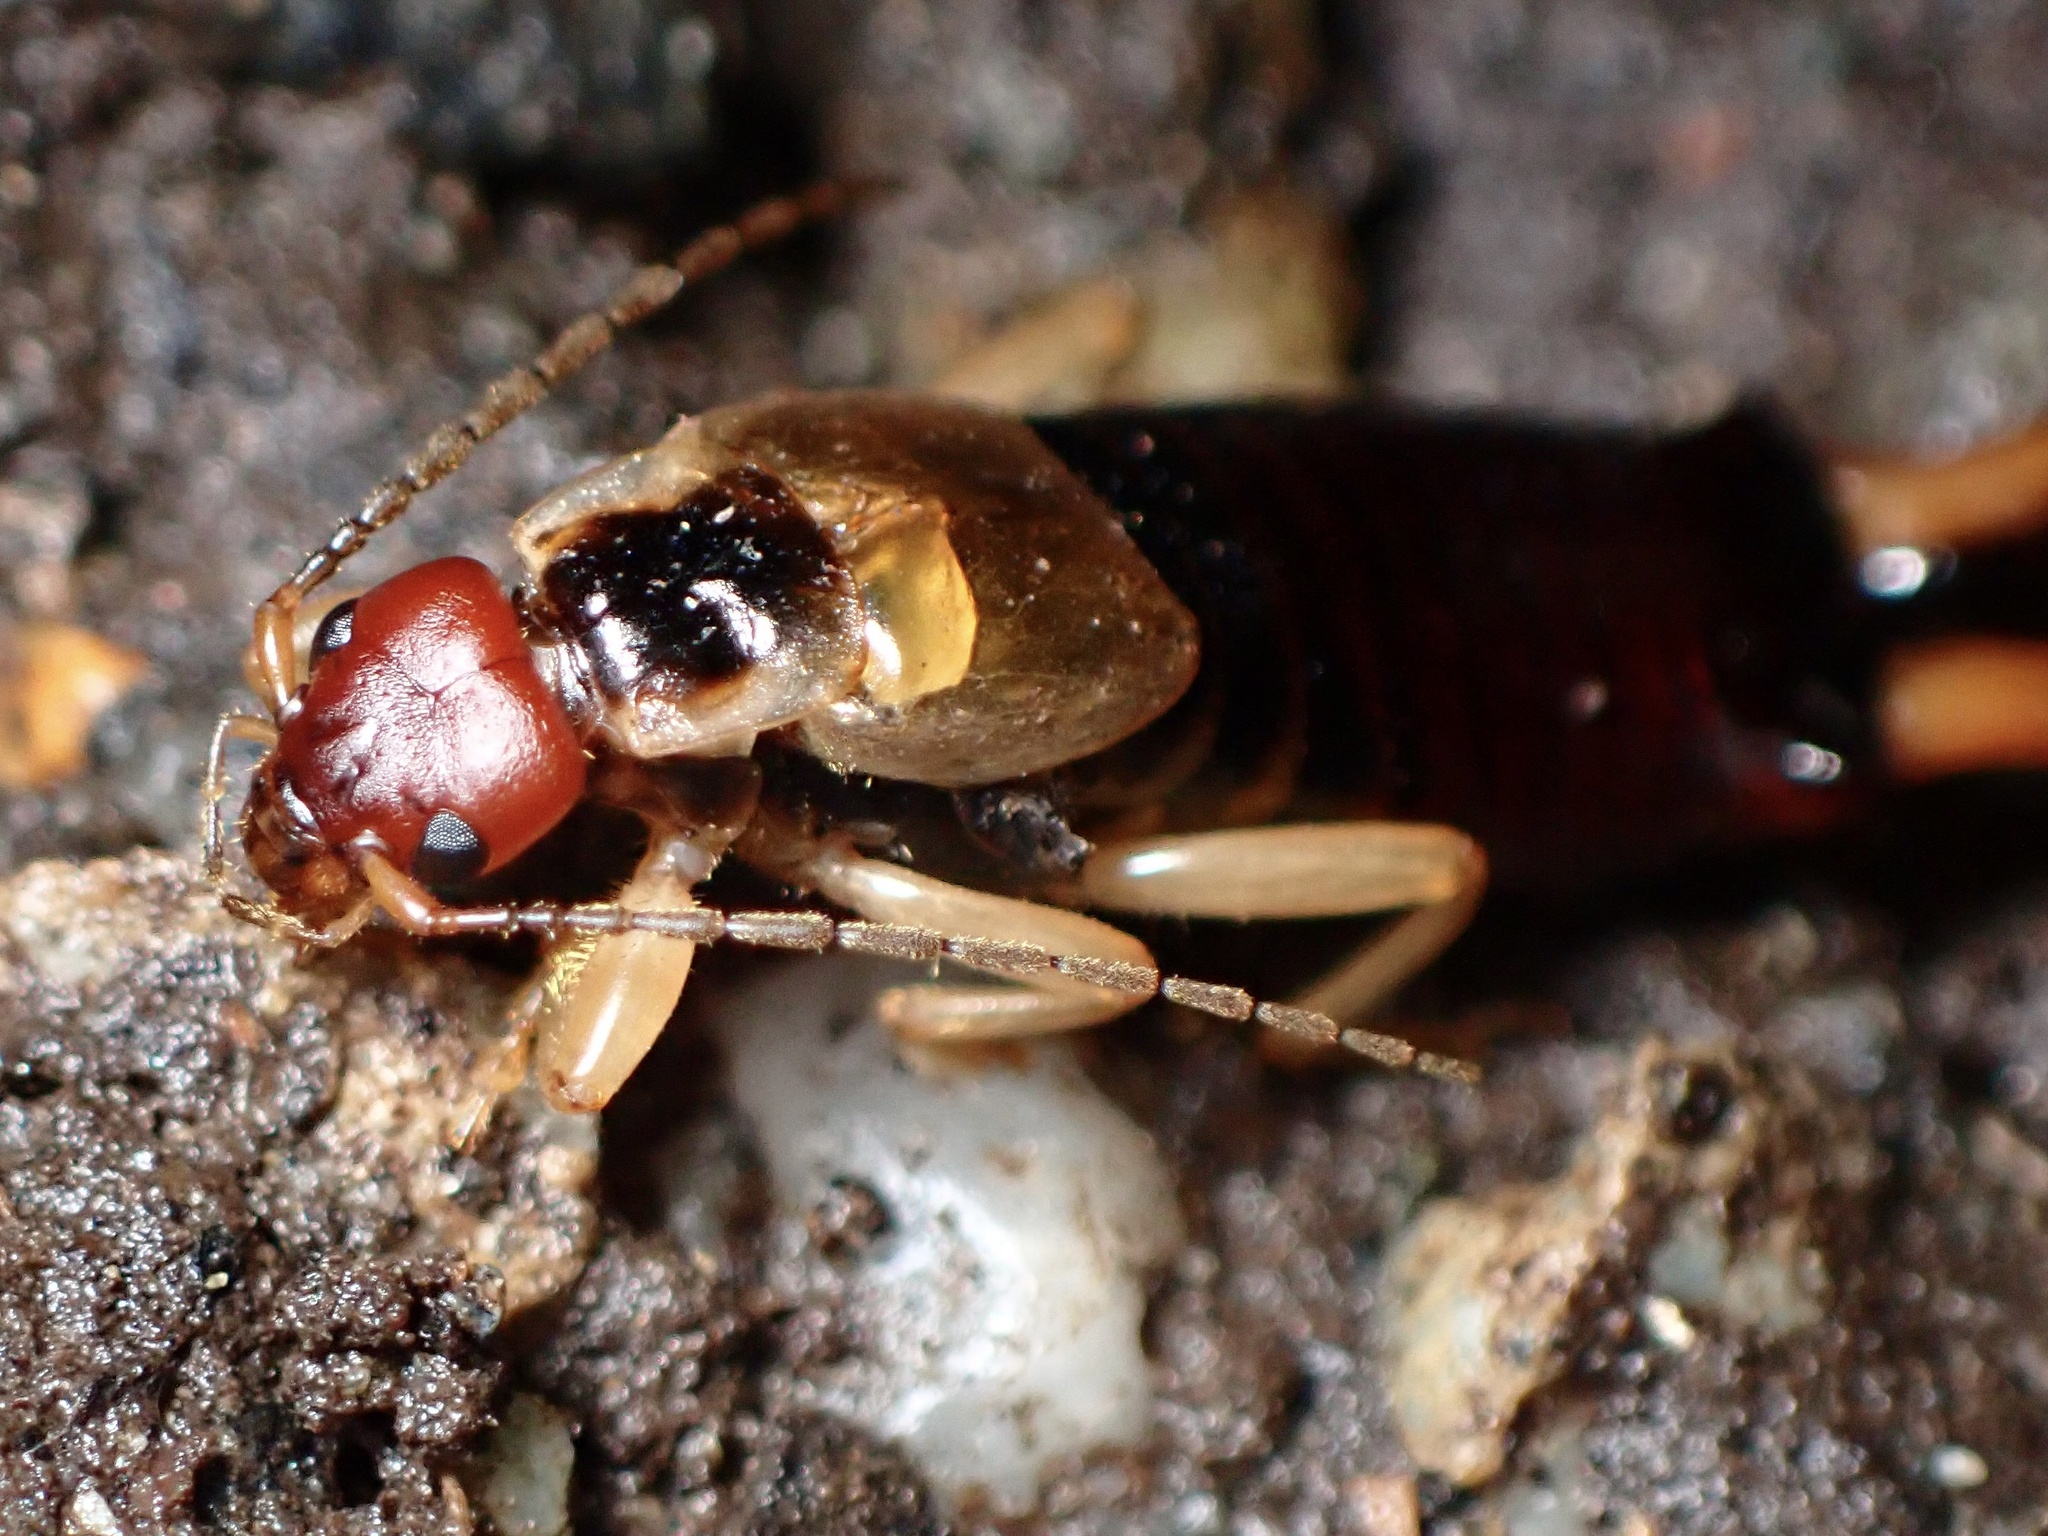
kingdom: Animalia
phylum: Arthropoda
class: Insecta
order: Dermaptera
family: Forficulidae
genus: Forficula
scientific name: Forficula
